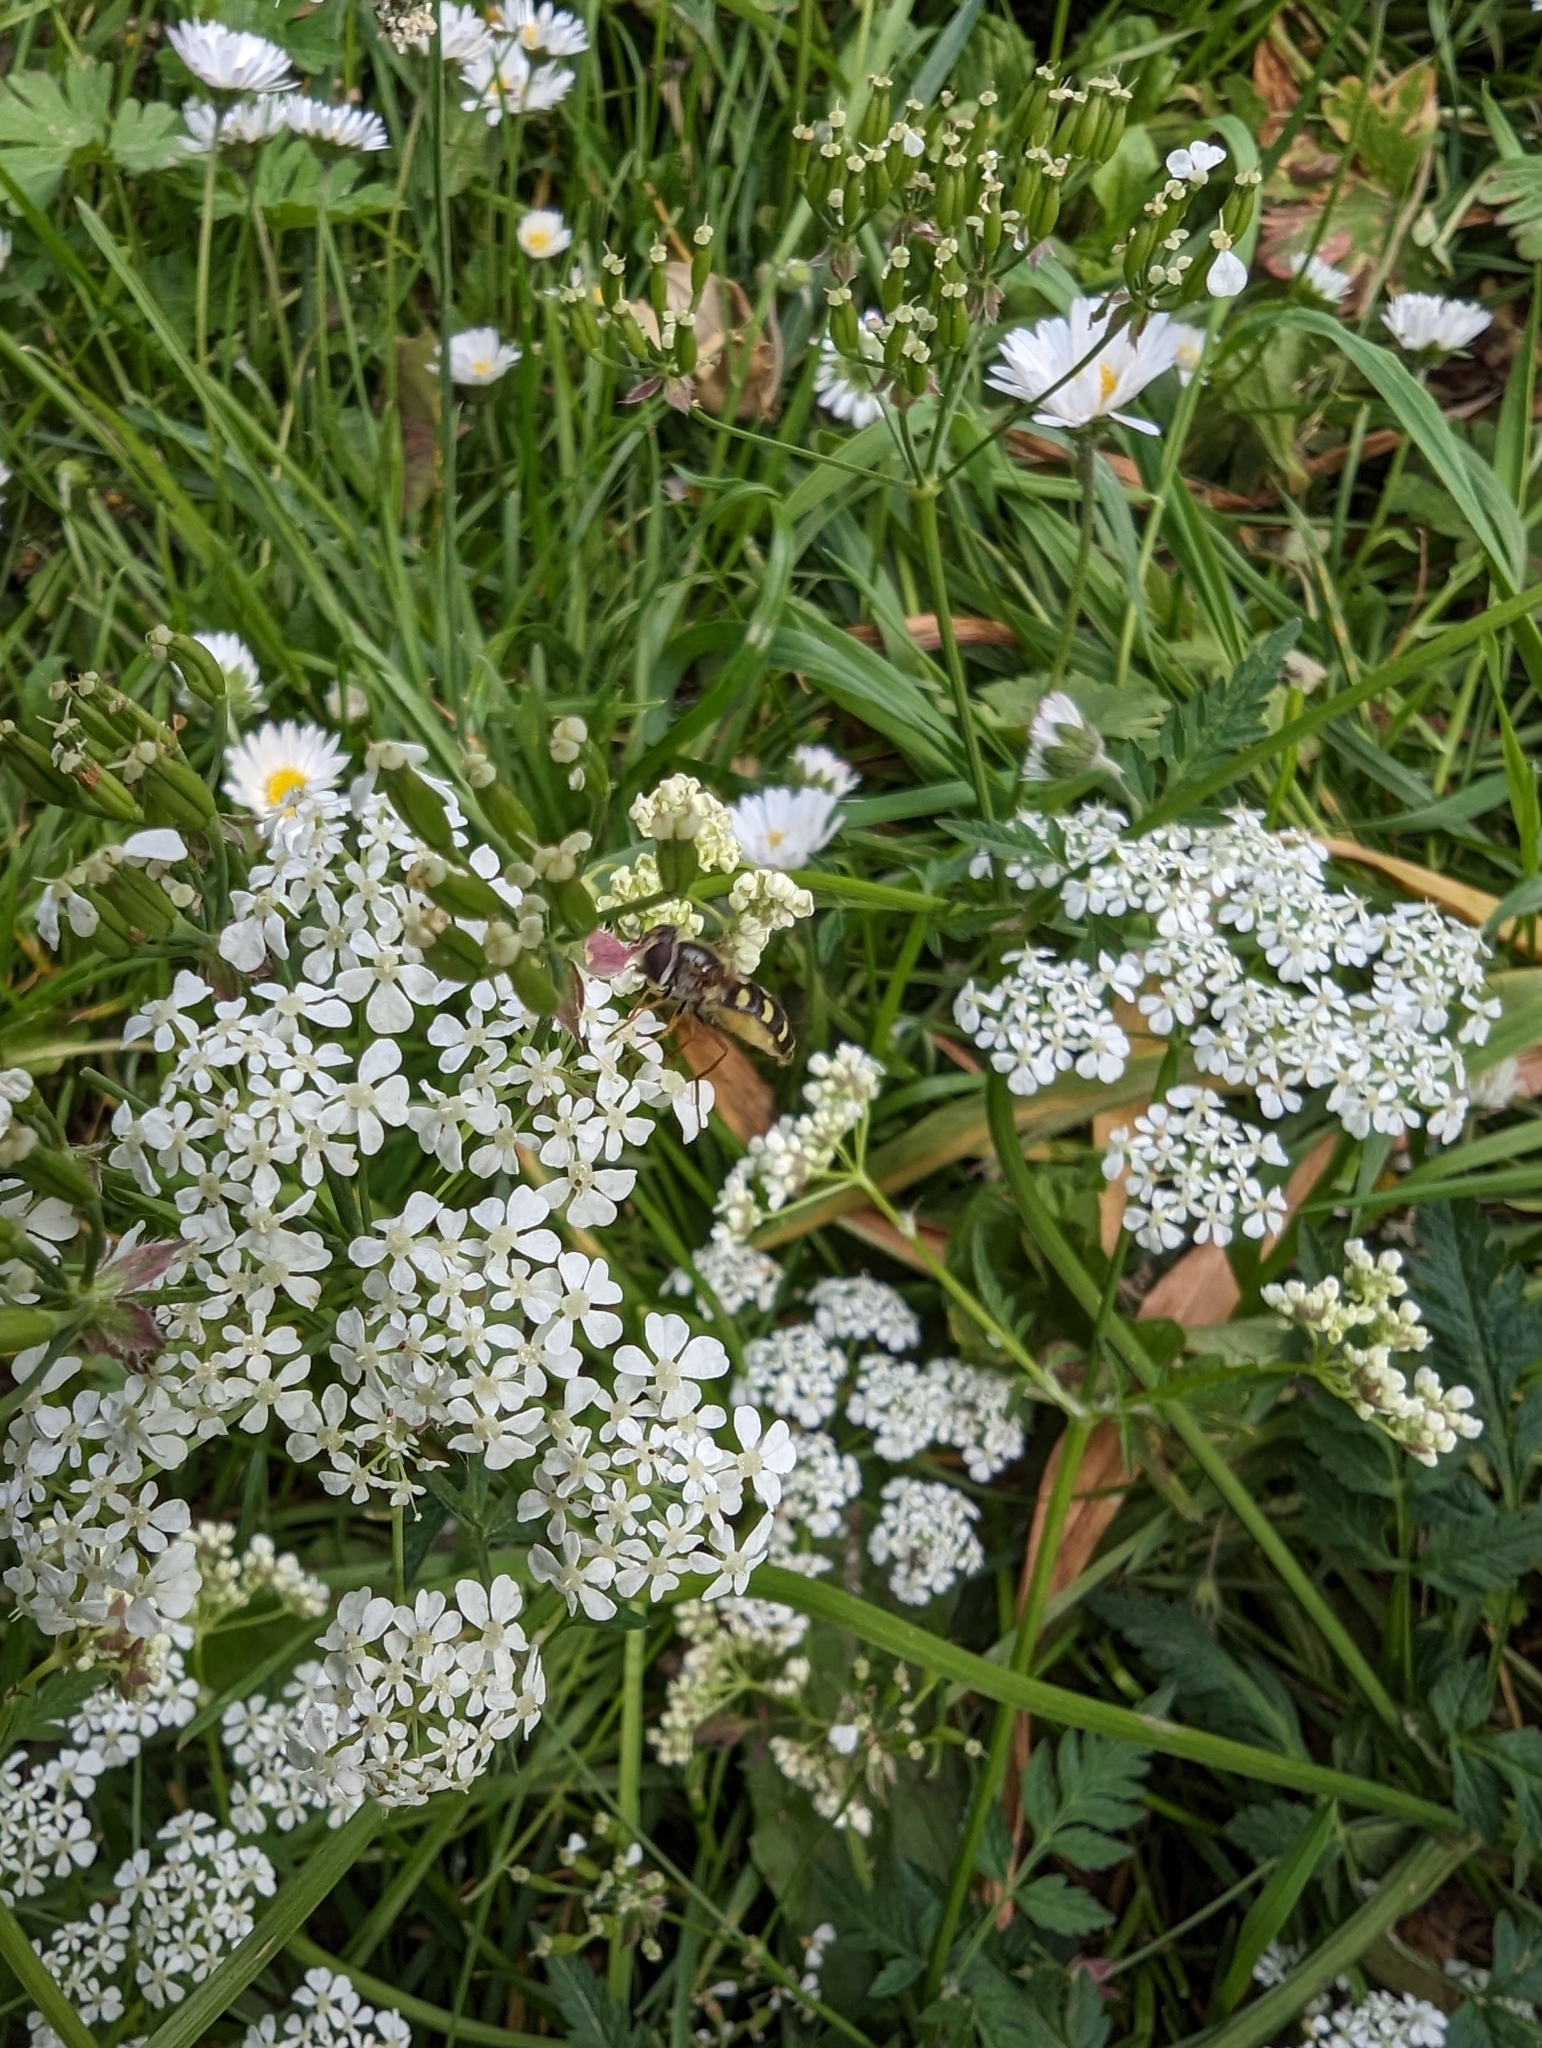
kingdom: Animalia
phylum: Arthropoda
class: Insecta
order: Diptera
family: Syrphidae
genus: Eupeodes
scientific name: Eupeodes luniger
